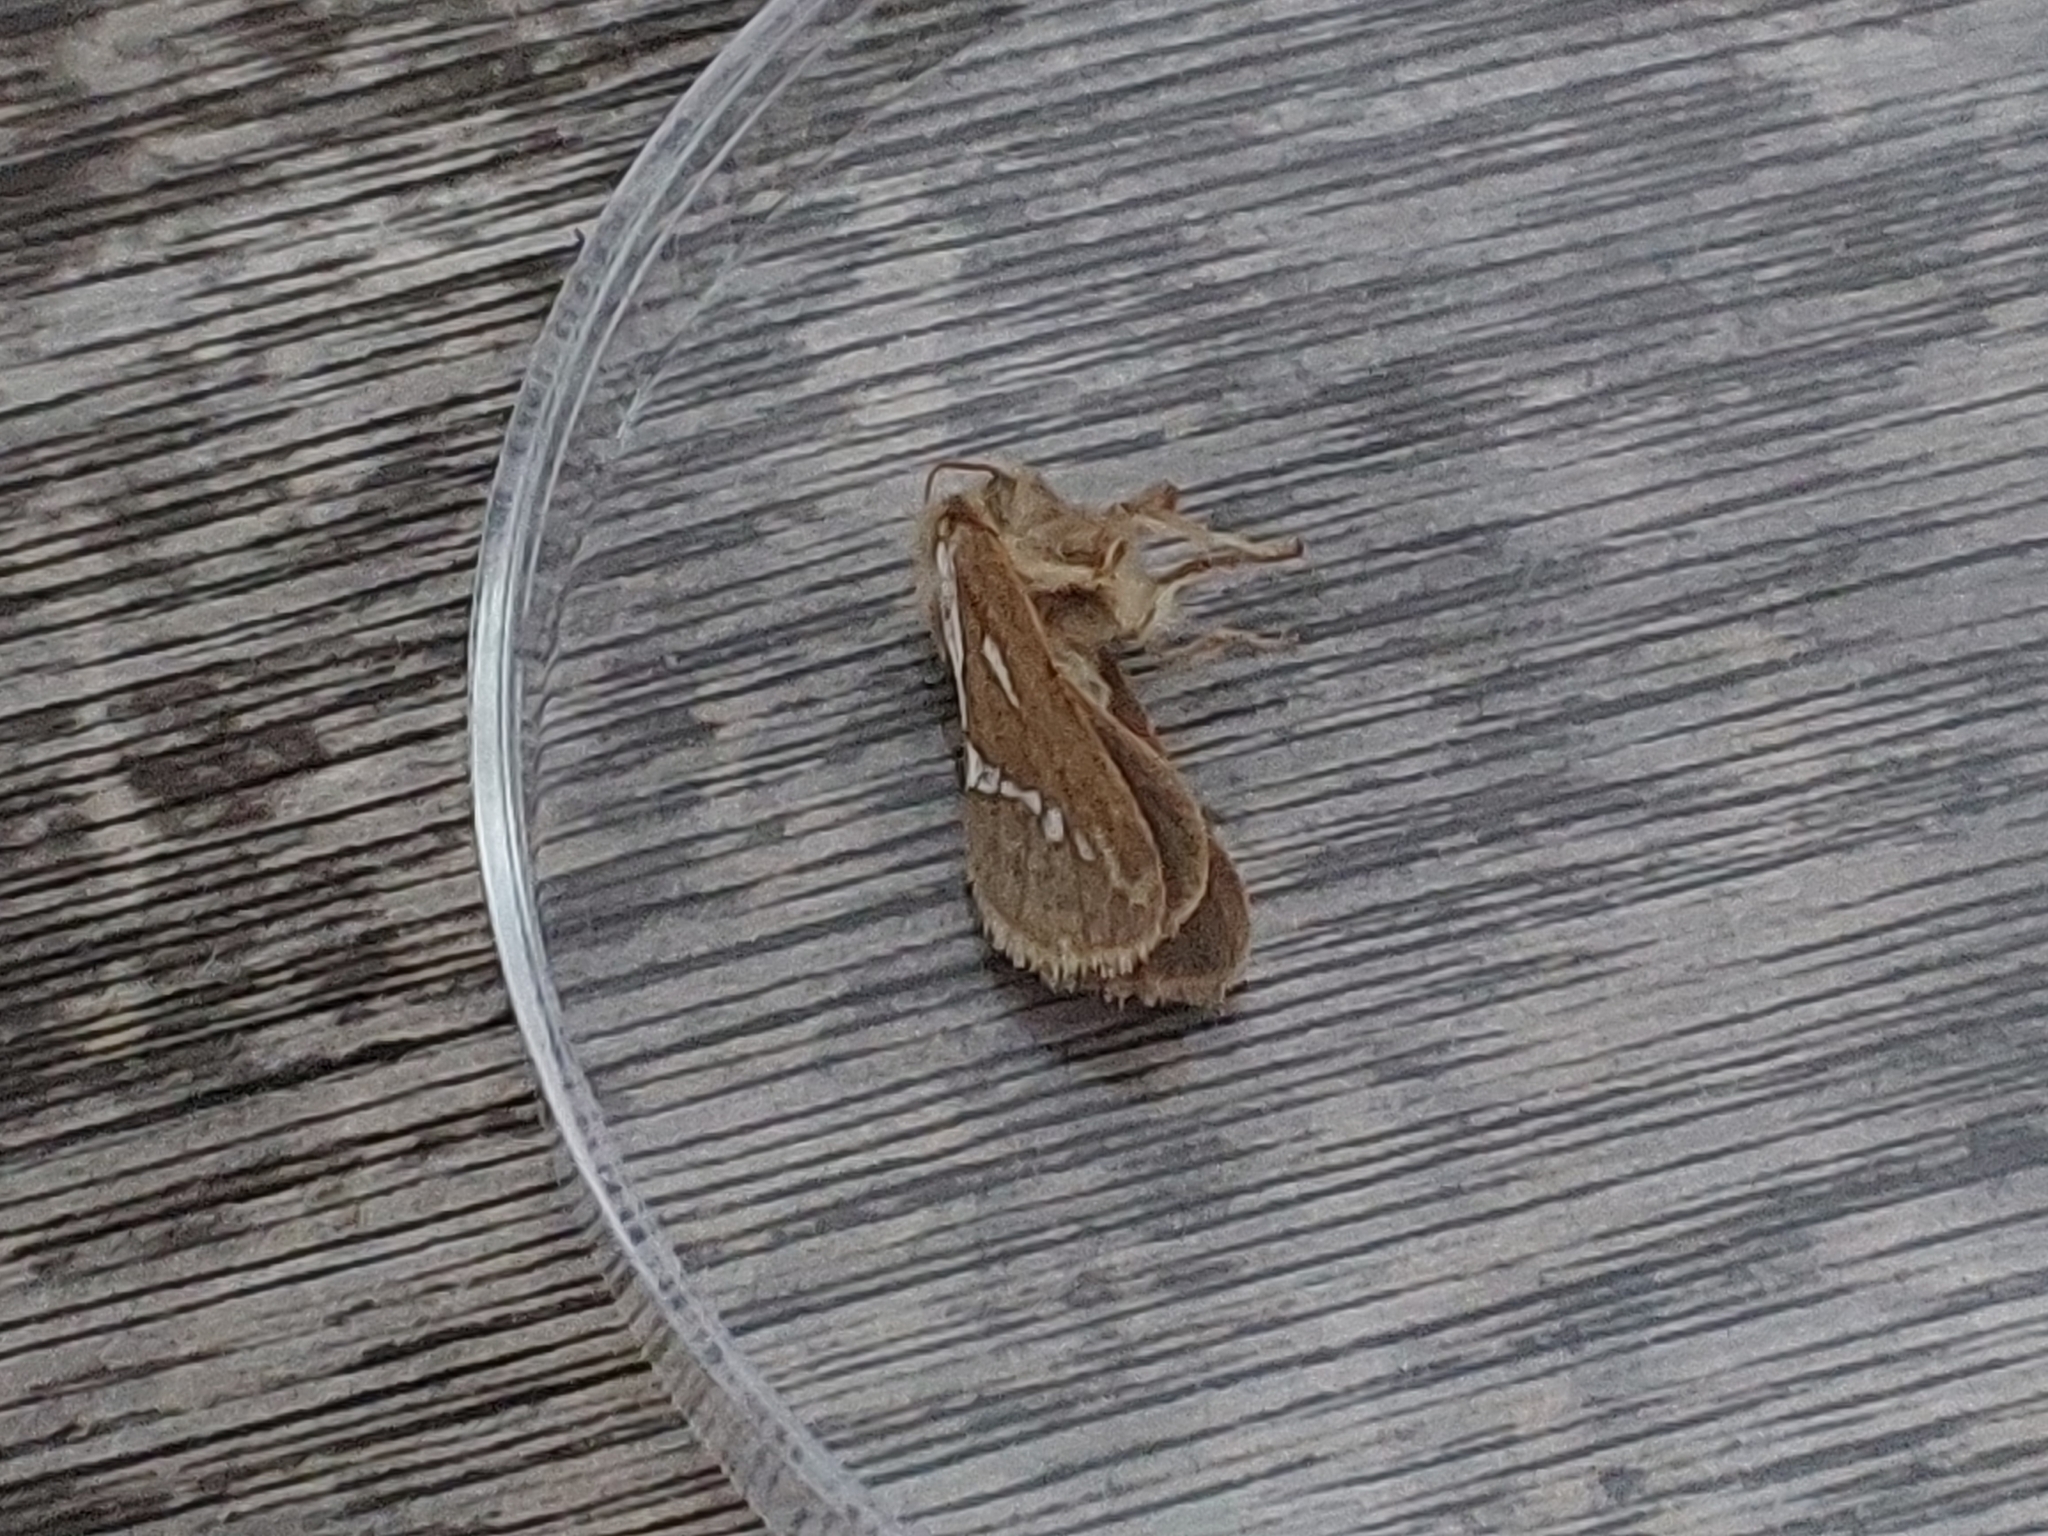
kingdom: Animalia
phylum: Arthropoda
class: Insecta
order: Lepidoptera
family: Hepialidae
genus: Korscheltellus
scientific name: Korscheltellus lupulina
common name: Common swift
